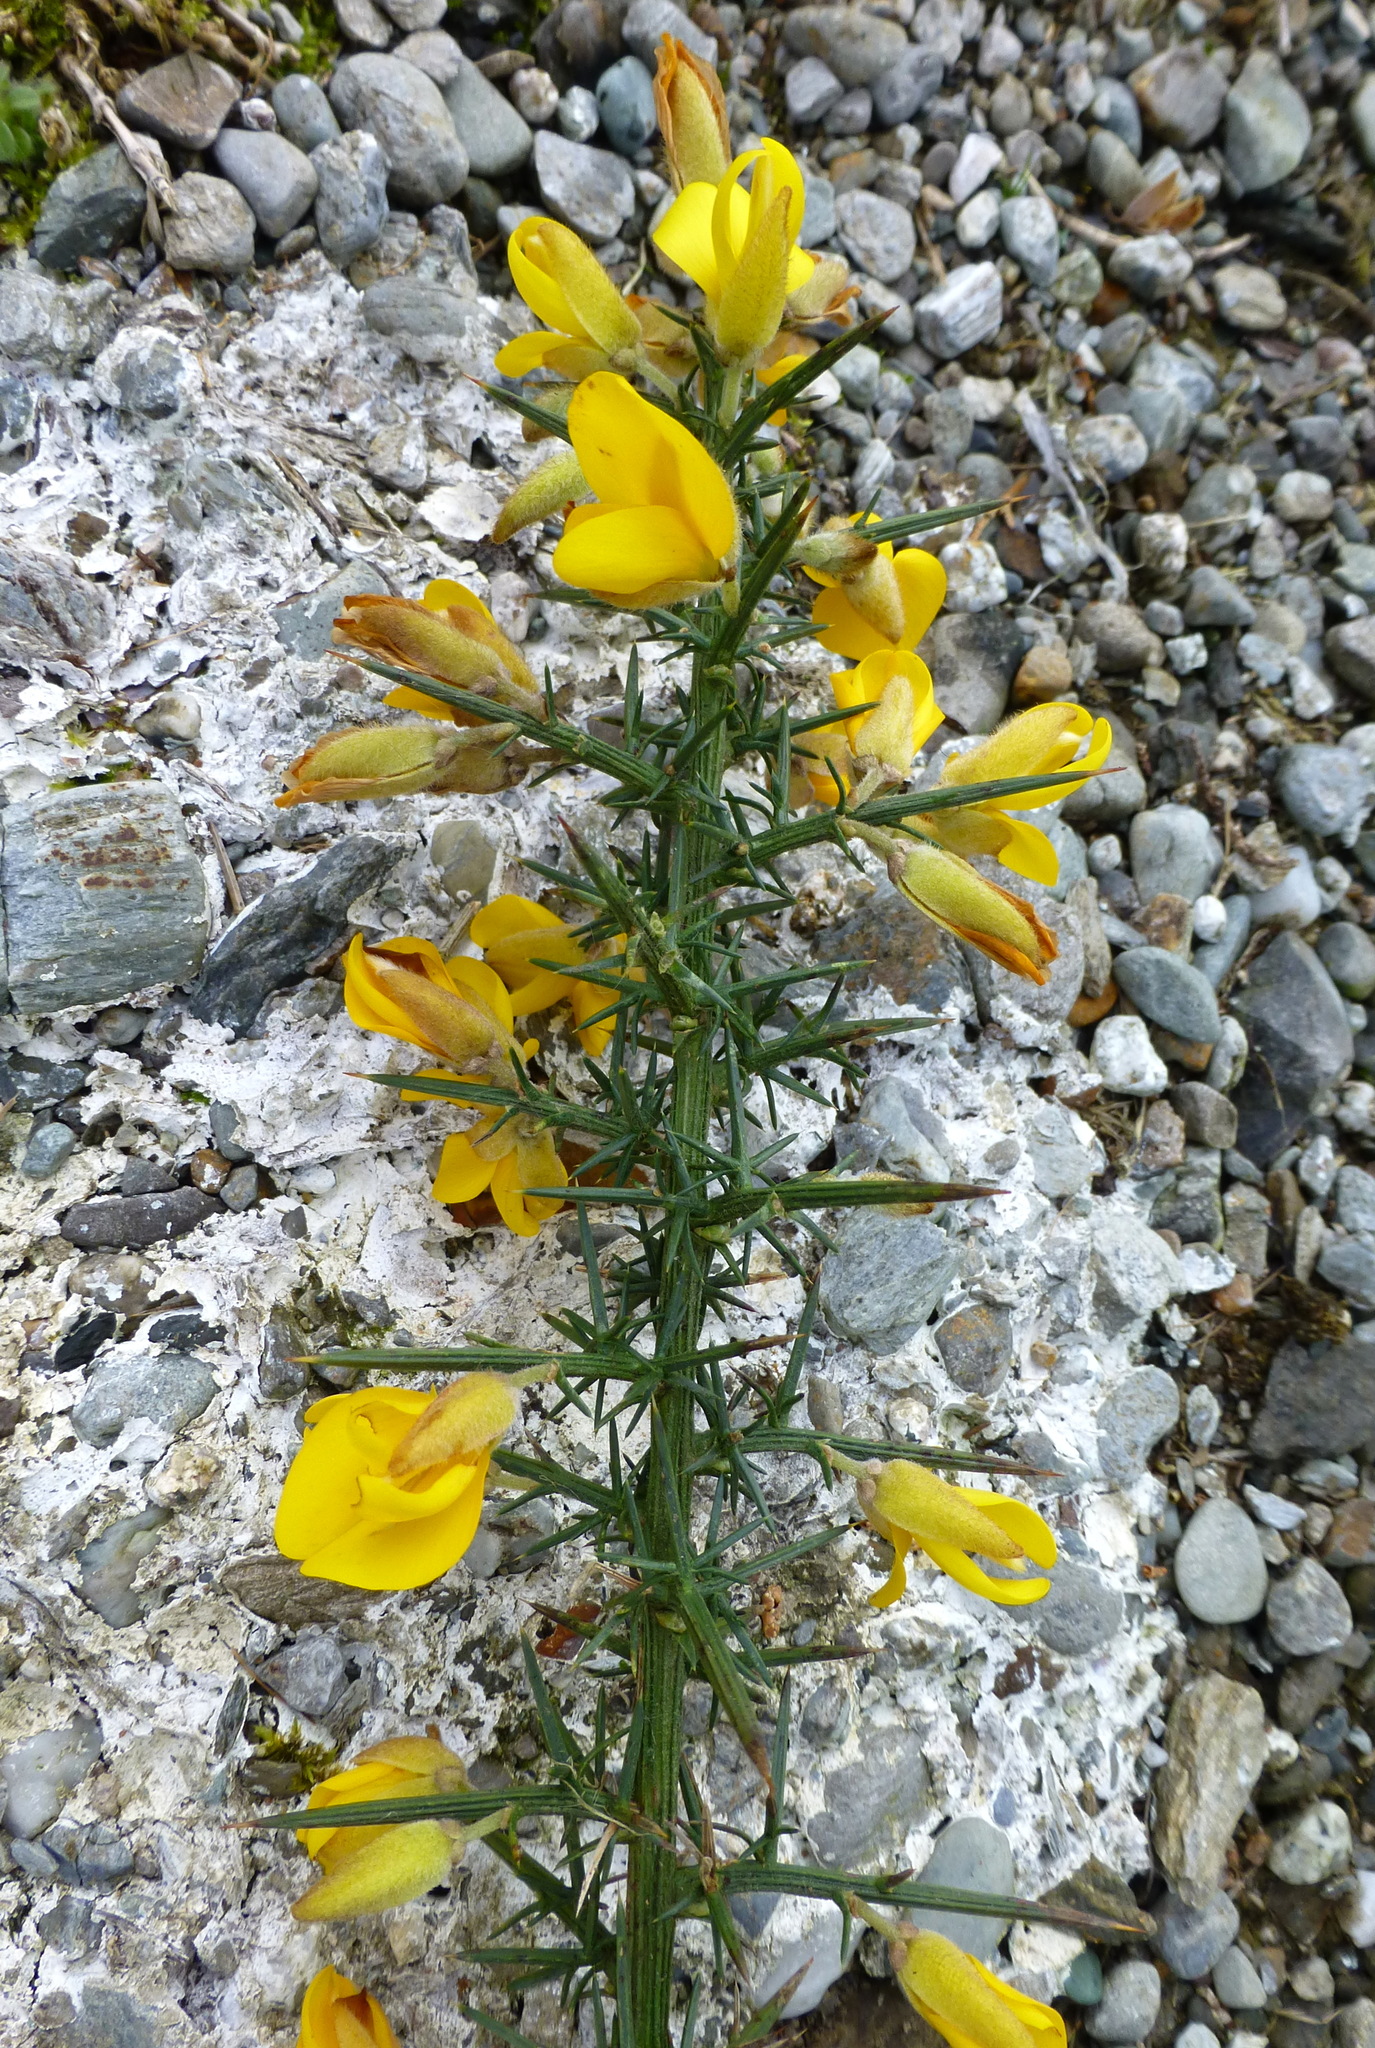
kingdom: Plantae
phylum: Tracheophyta
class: Magnoliopsida
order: Fabales
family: Fabaceae
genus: Ulex
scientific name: Ulex europaeus
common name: Common gorse
